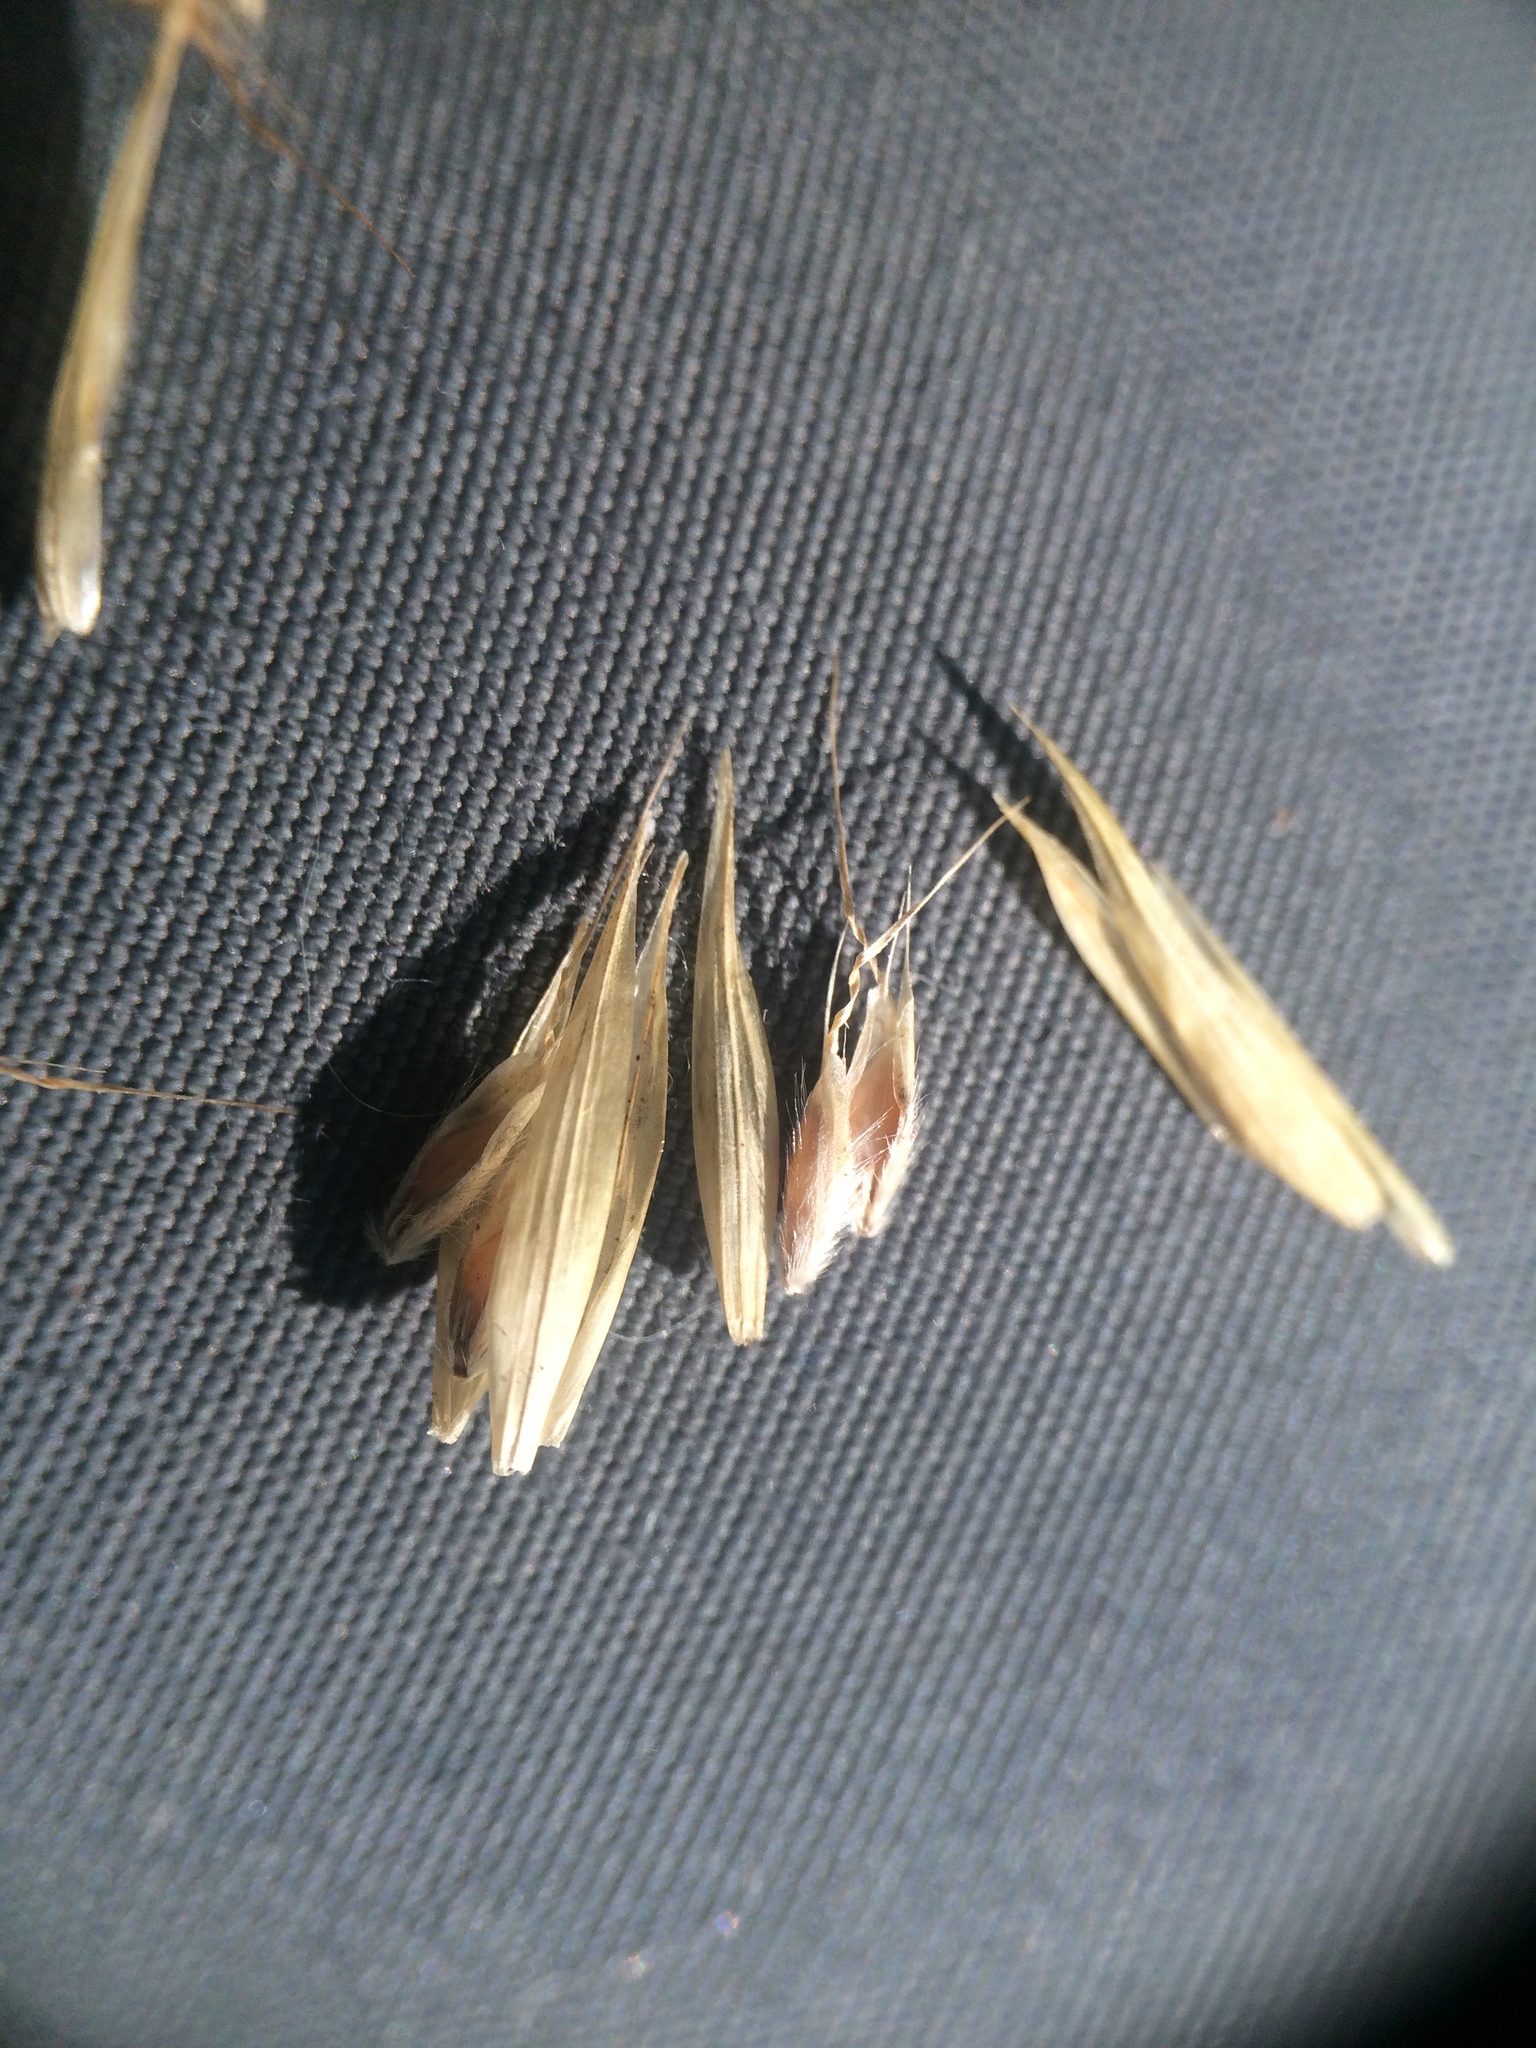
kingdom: Plantae
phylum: Tracheophyta
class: Liliopsida
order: Poales
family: Poaceae
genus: Danthonia
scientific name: Danthonia compressa
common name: Flat-stem oat grass
